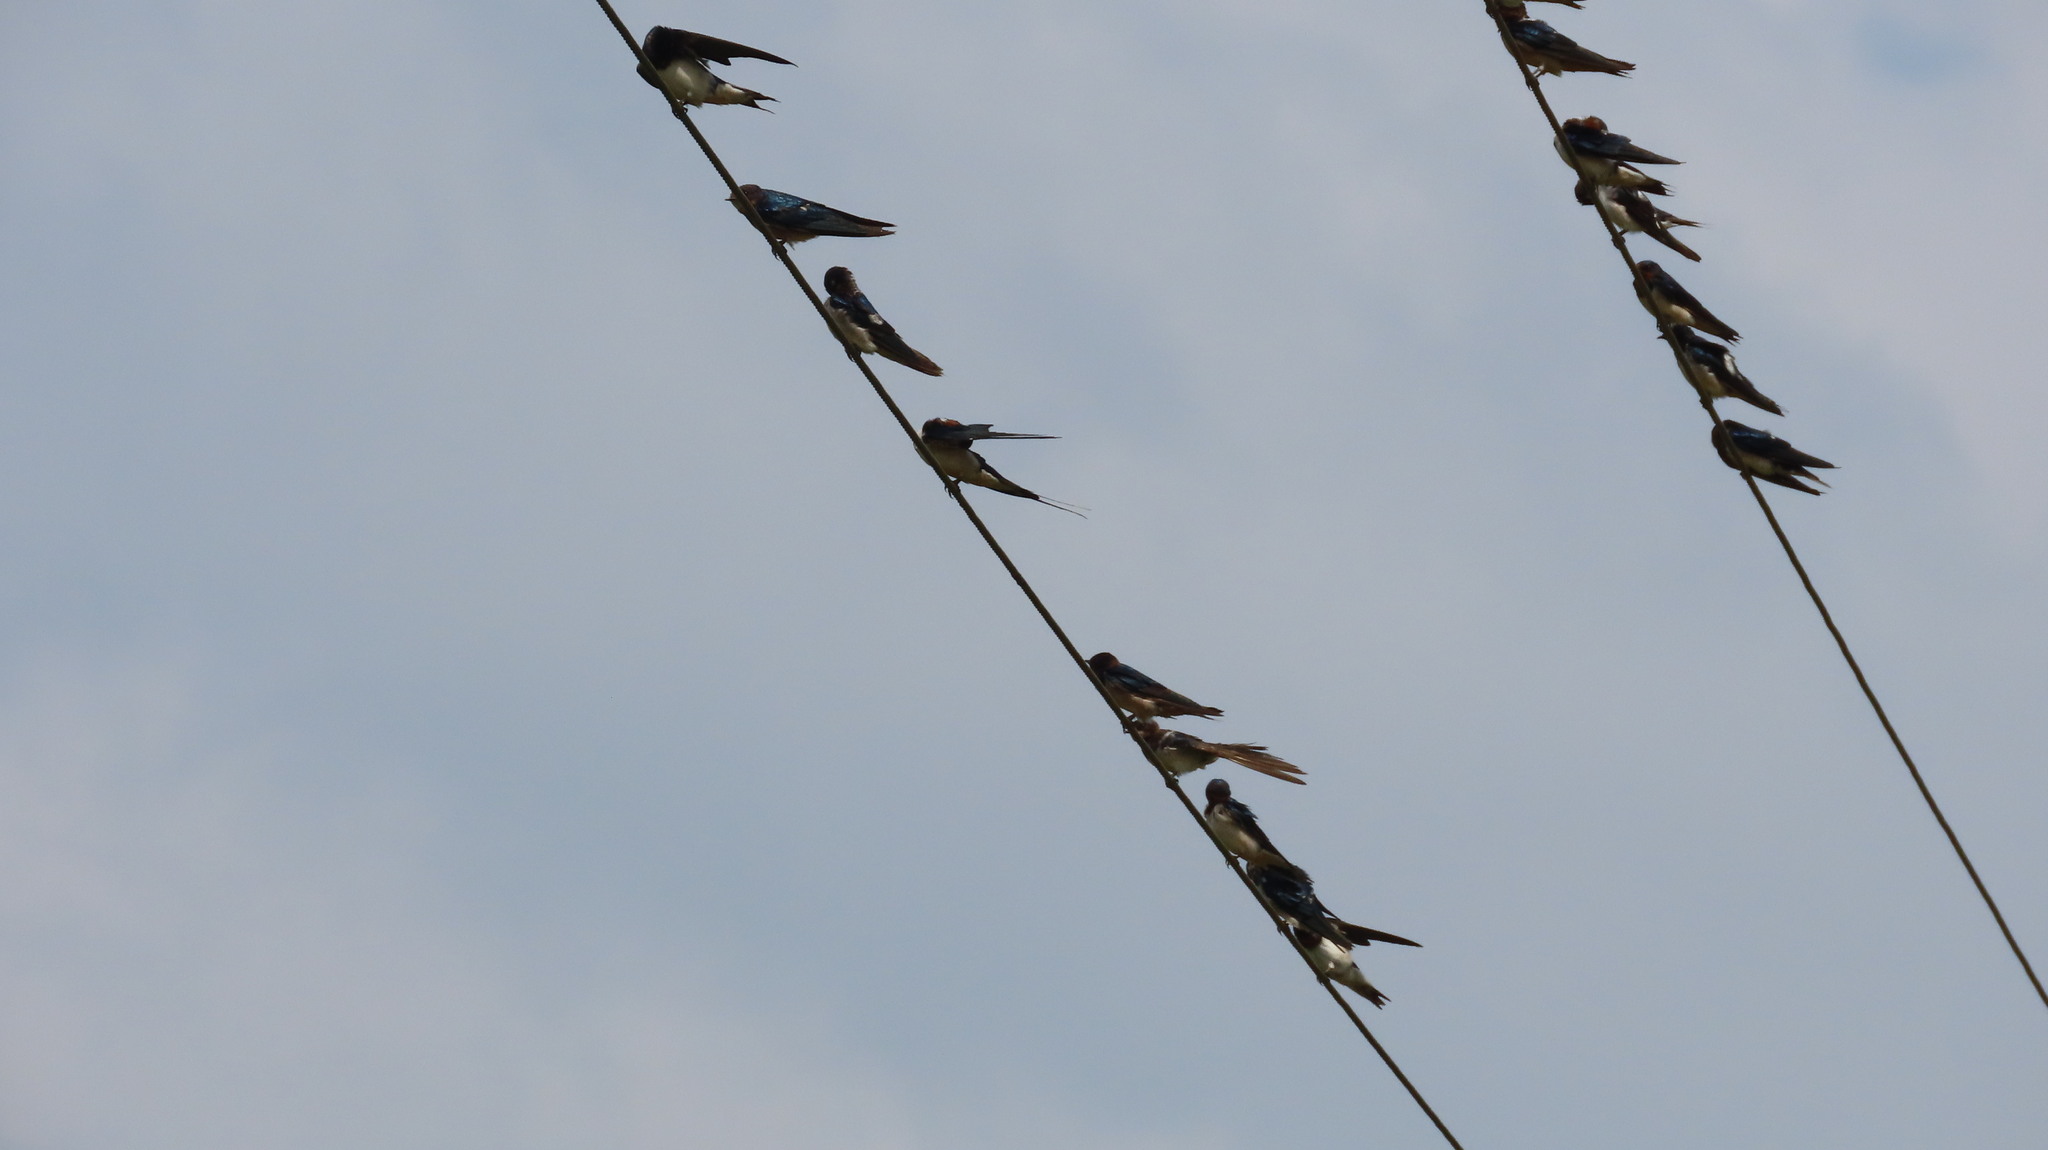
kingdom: Animalia
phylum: Chordata
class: Aves
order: Passeriformes
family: Hirundinidae
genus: Hirundo
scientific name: Hirundo rustica
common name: Barn swallow
